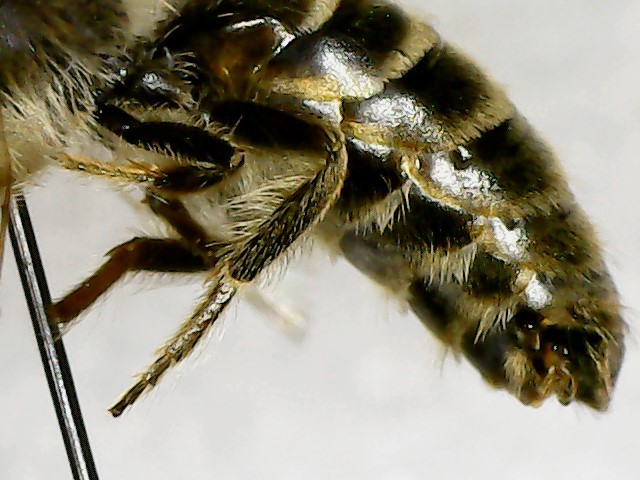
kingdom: Animalia
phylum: Arthropoda
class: Insecta
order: Hymenoptera
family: Colletidae
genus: Colletes
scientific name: Colletes inaequalis
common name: Unequal cellophane bee
